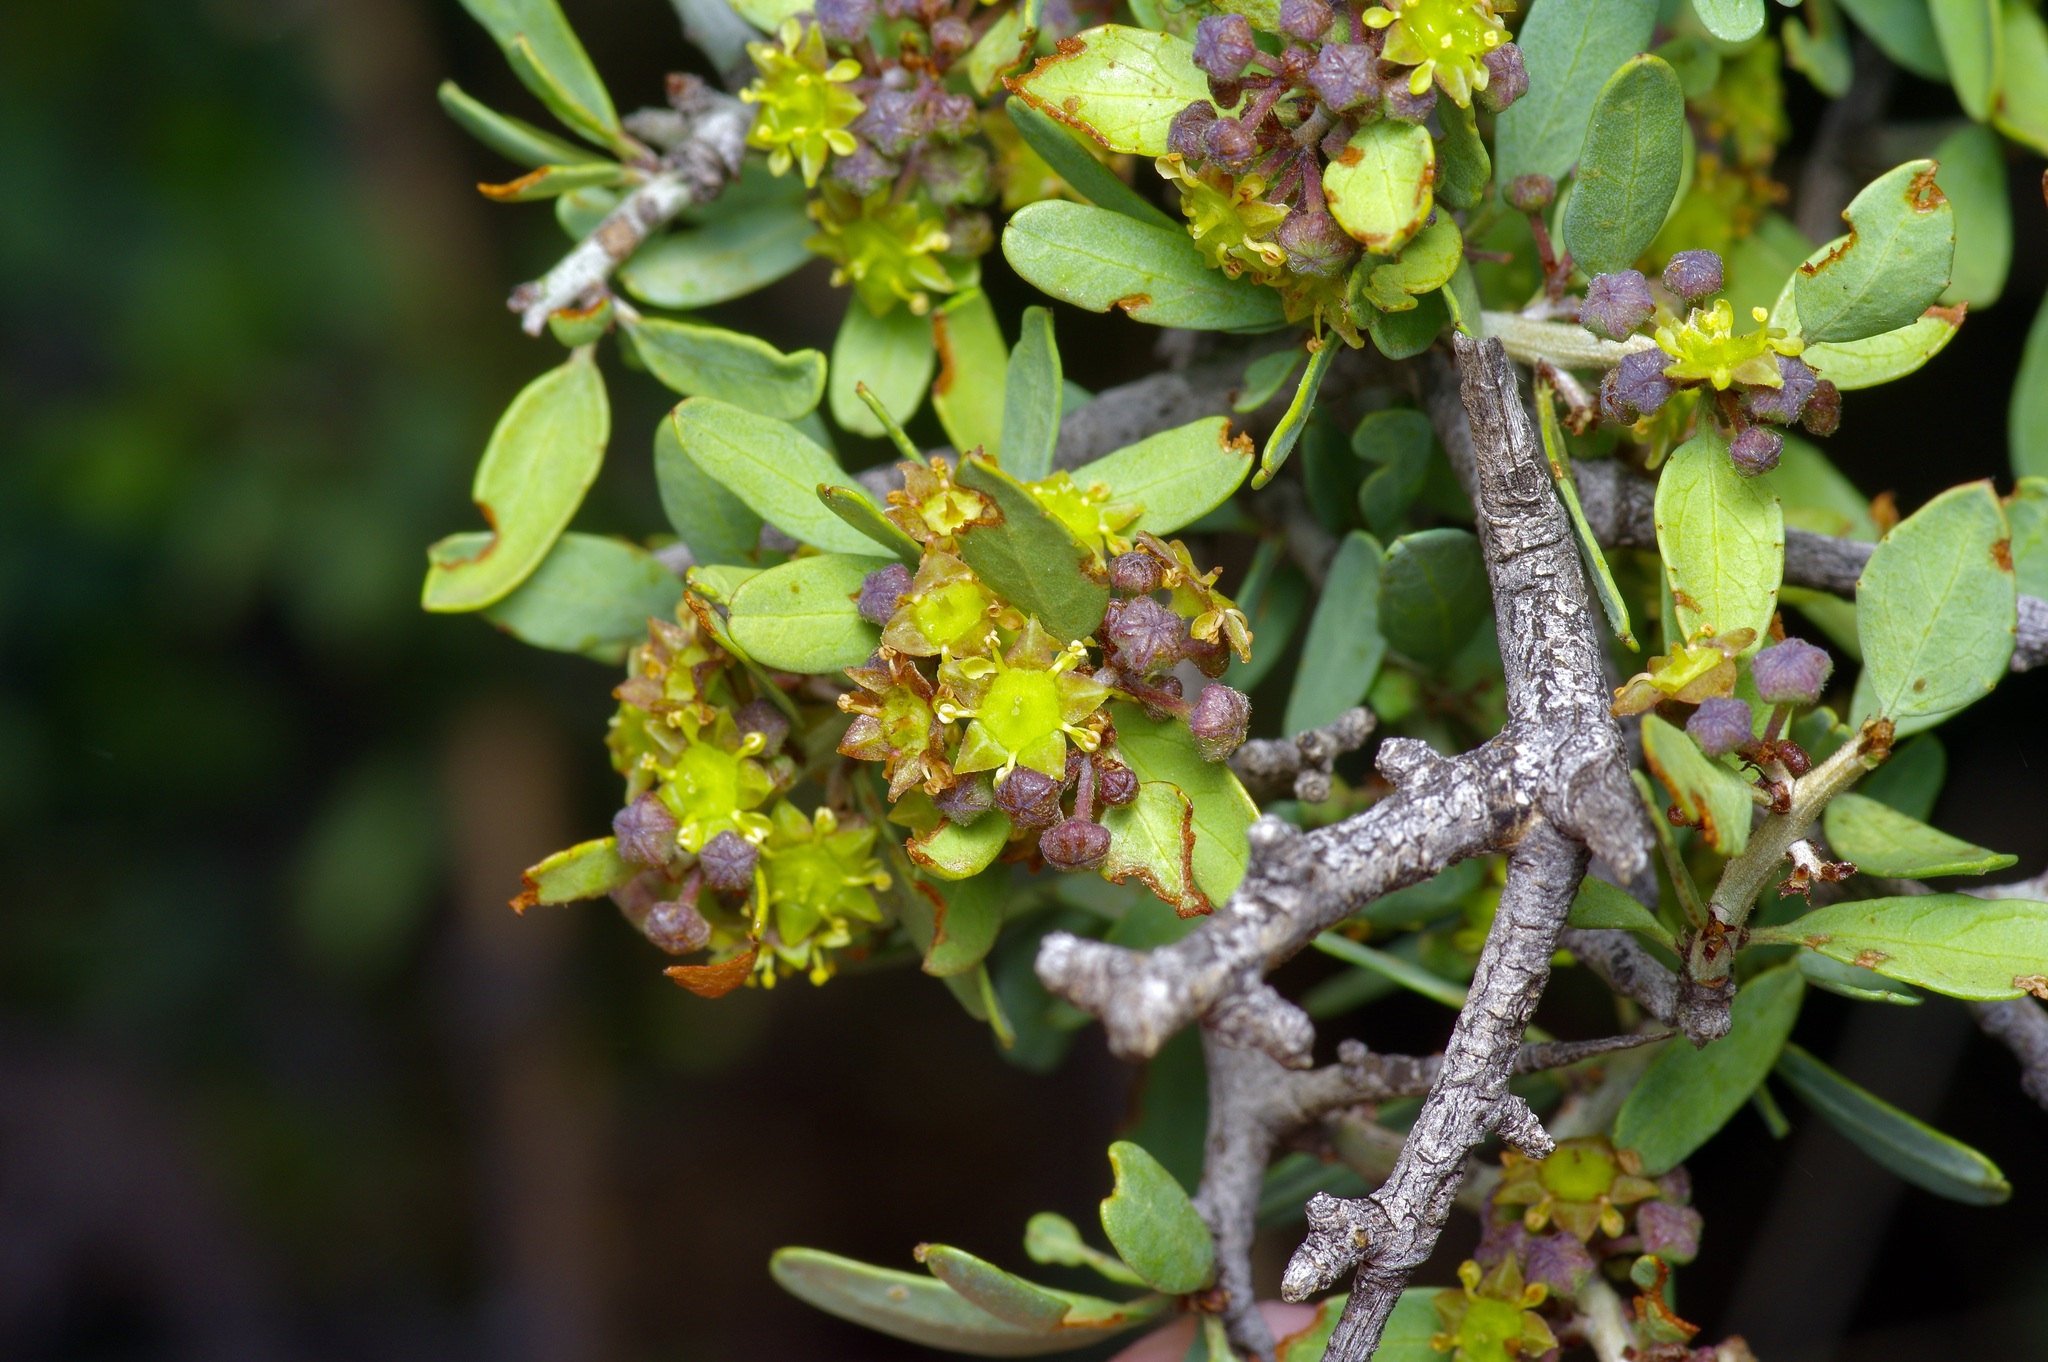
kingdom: Plantae
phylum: Tracheophyta
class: Magnoliopsida
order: Rosales
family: Rhamnaceae
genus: Sarcomphalus
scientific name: Sarcomphalus obtusifolius
